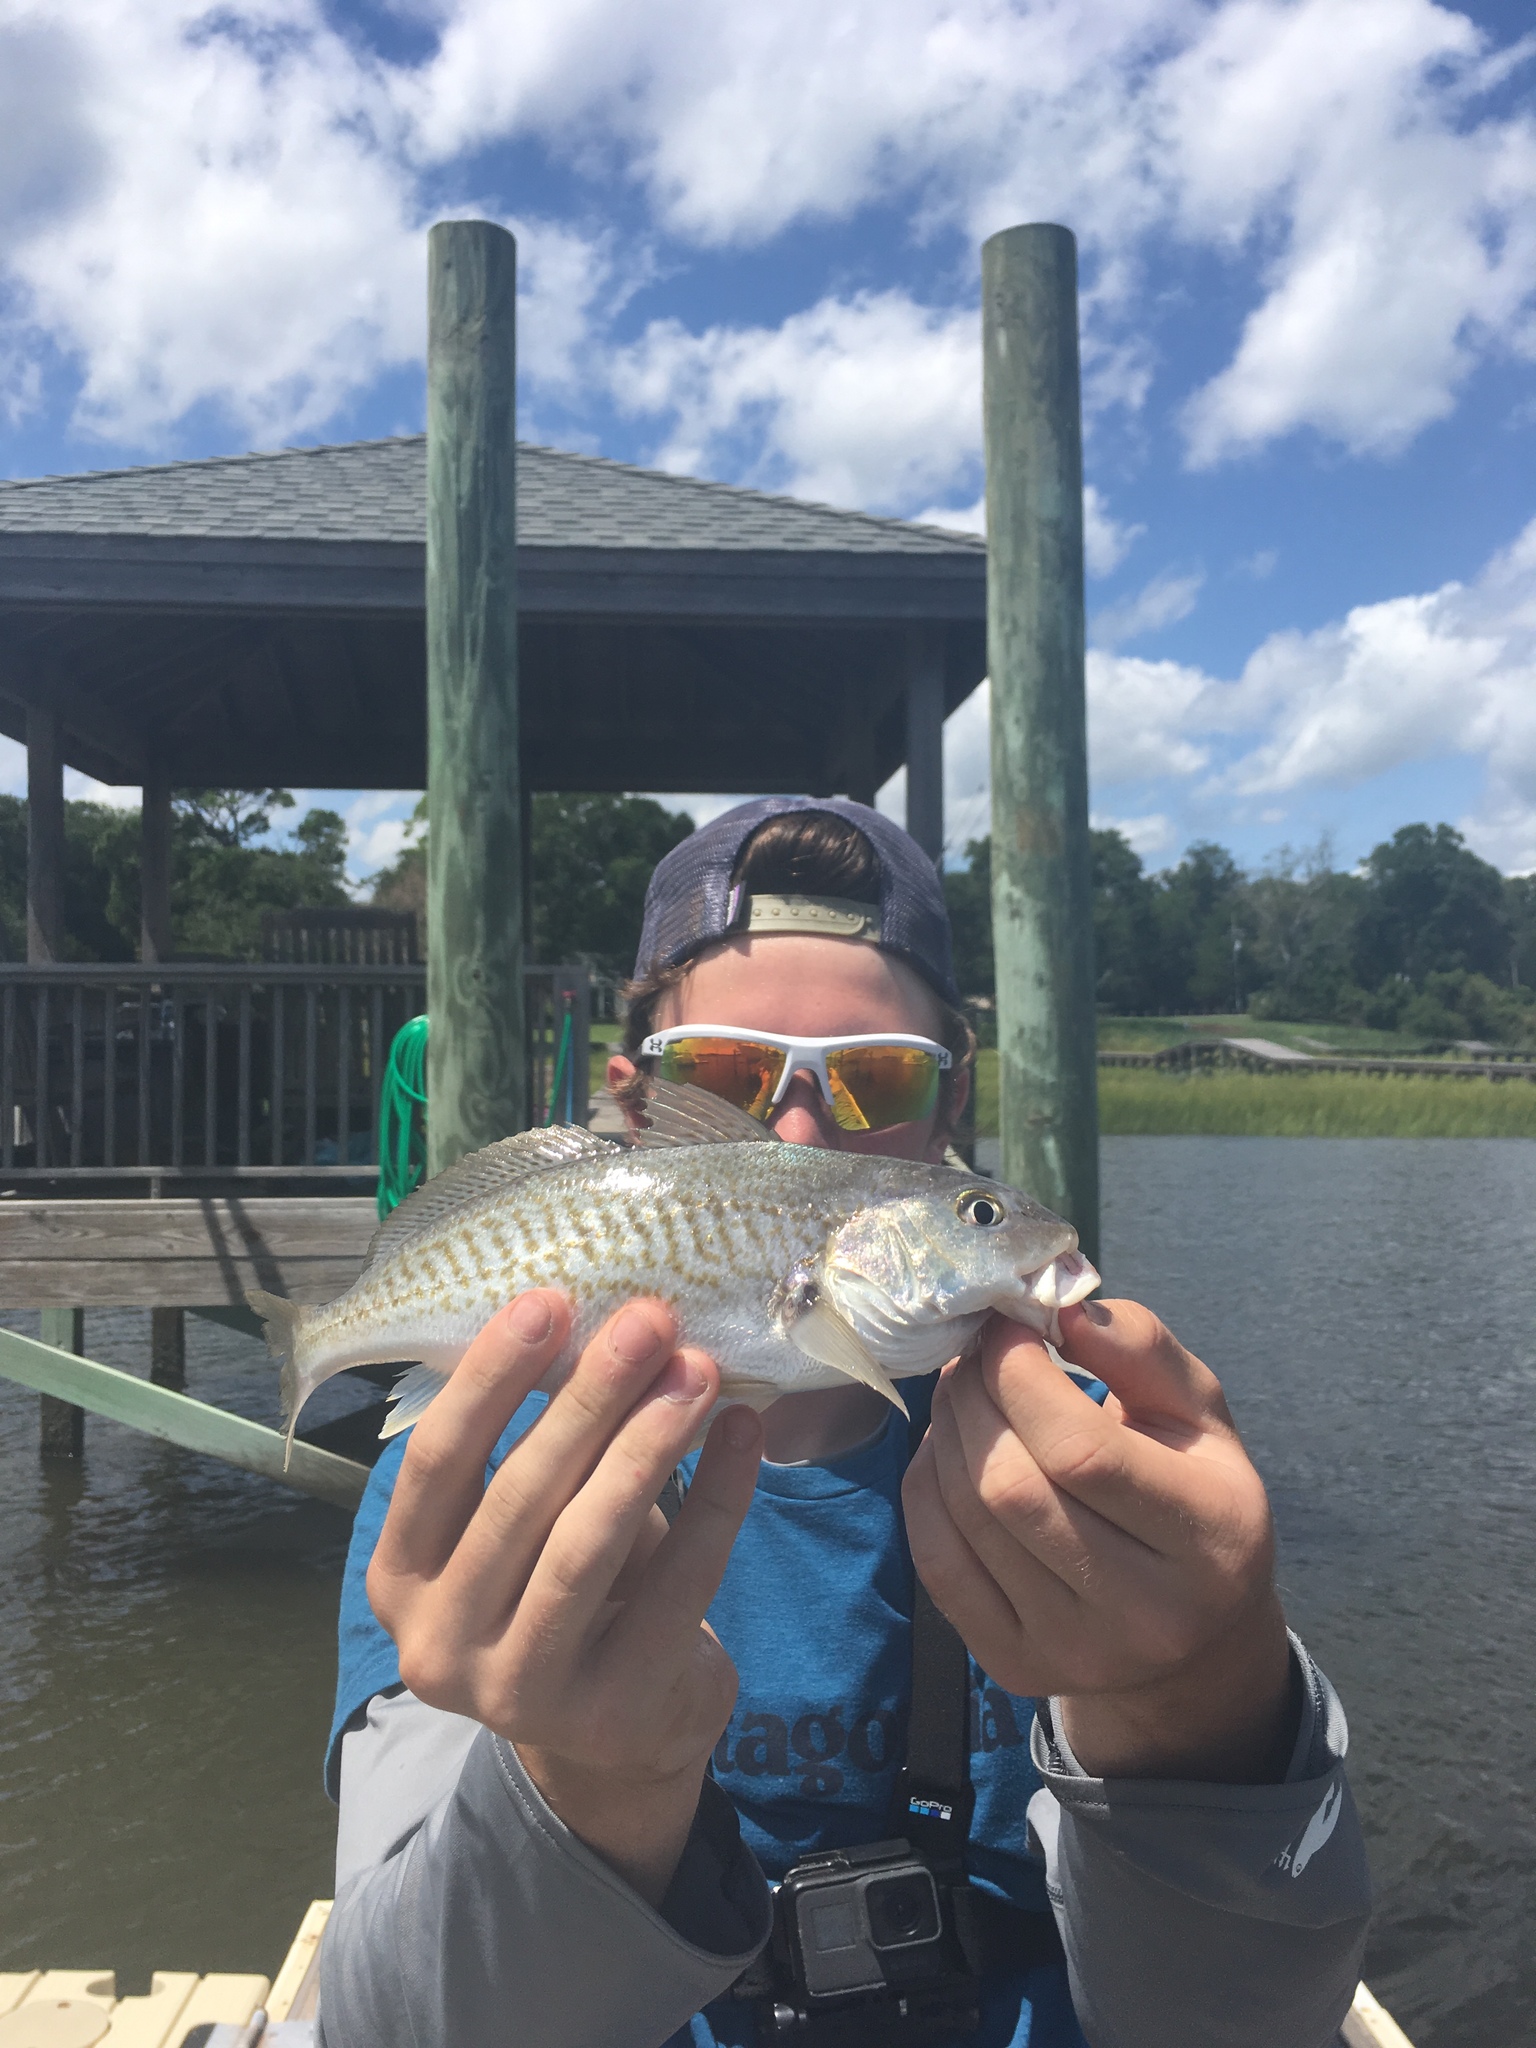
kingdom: Animalia
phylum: Chordata
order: Perciformes
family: Sciaenidae
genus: Micropogonias
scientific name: Micropogonias undulatus
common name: Atlantic croaker
